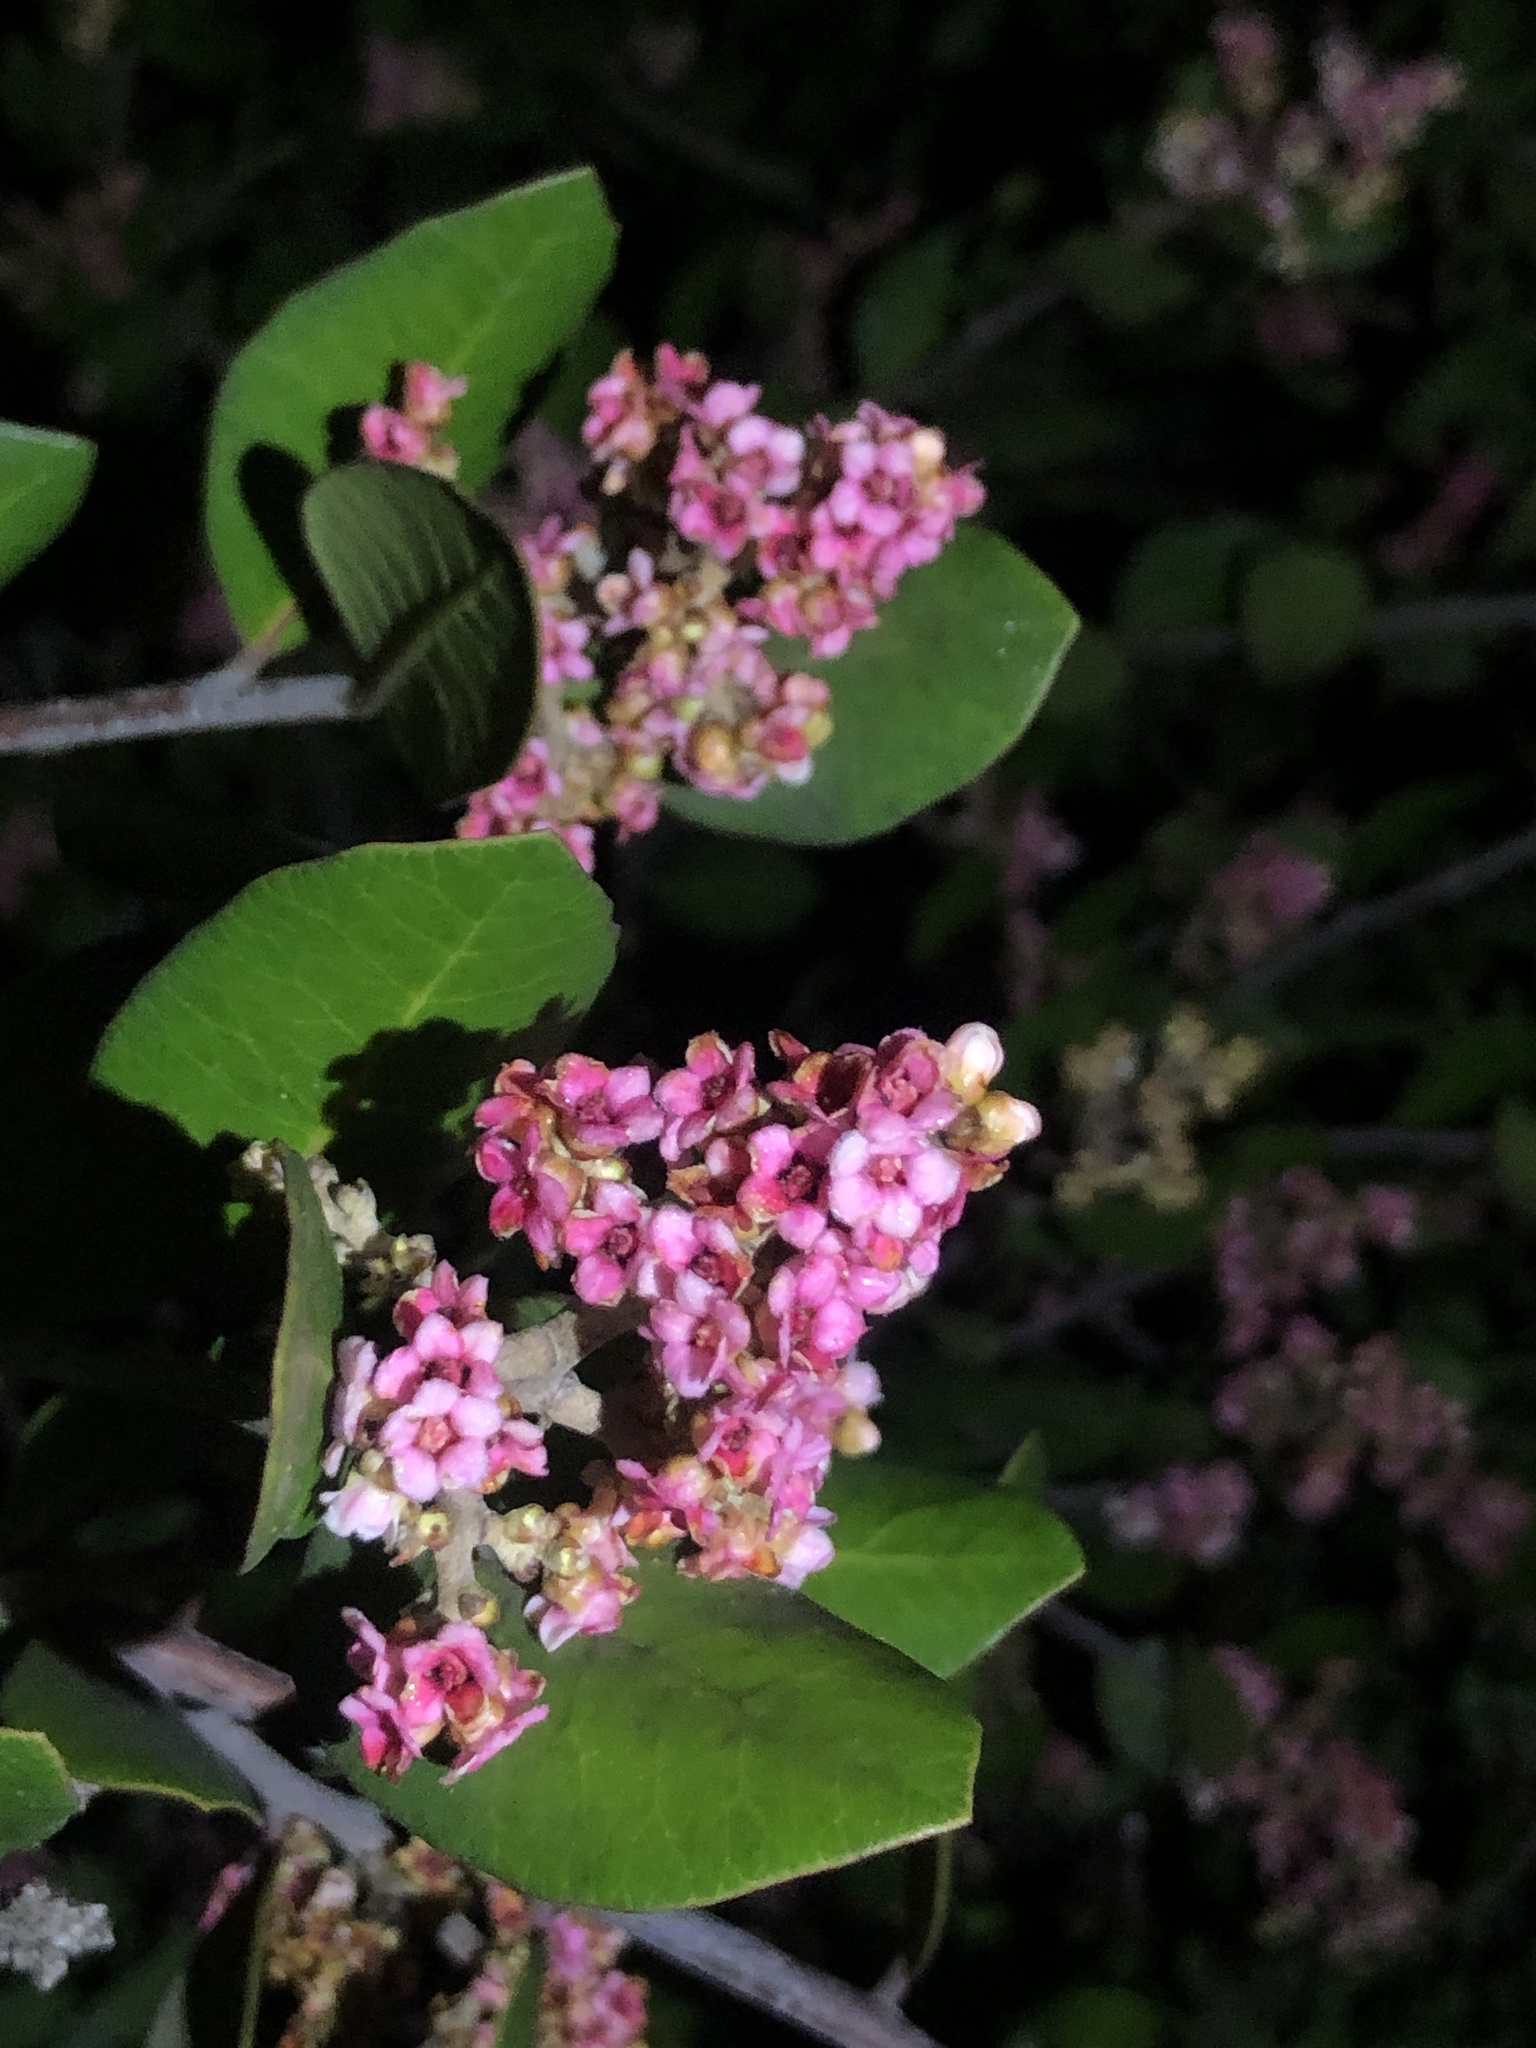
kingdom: Plantae
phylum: Tracheophyta
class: Magnoliopsida
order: Sapindales
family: Anacardiaceae
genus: Rhus
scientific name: Rhus integrifolia
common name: Lemonade sumac
